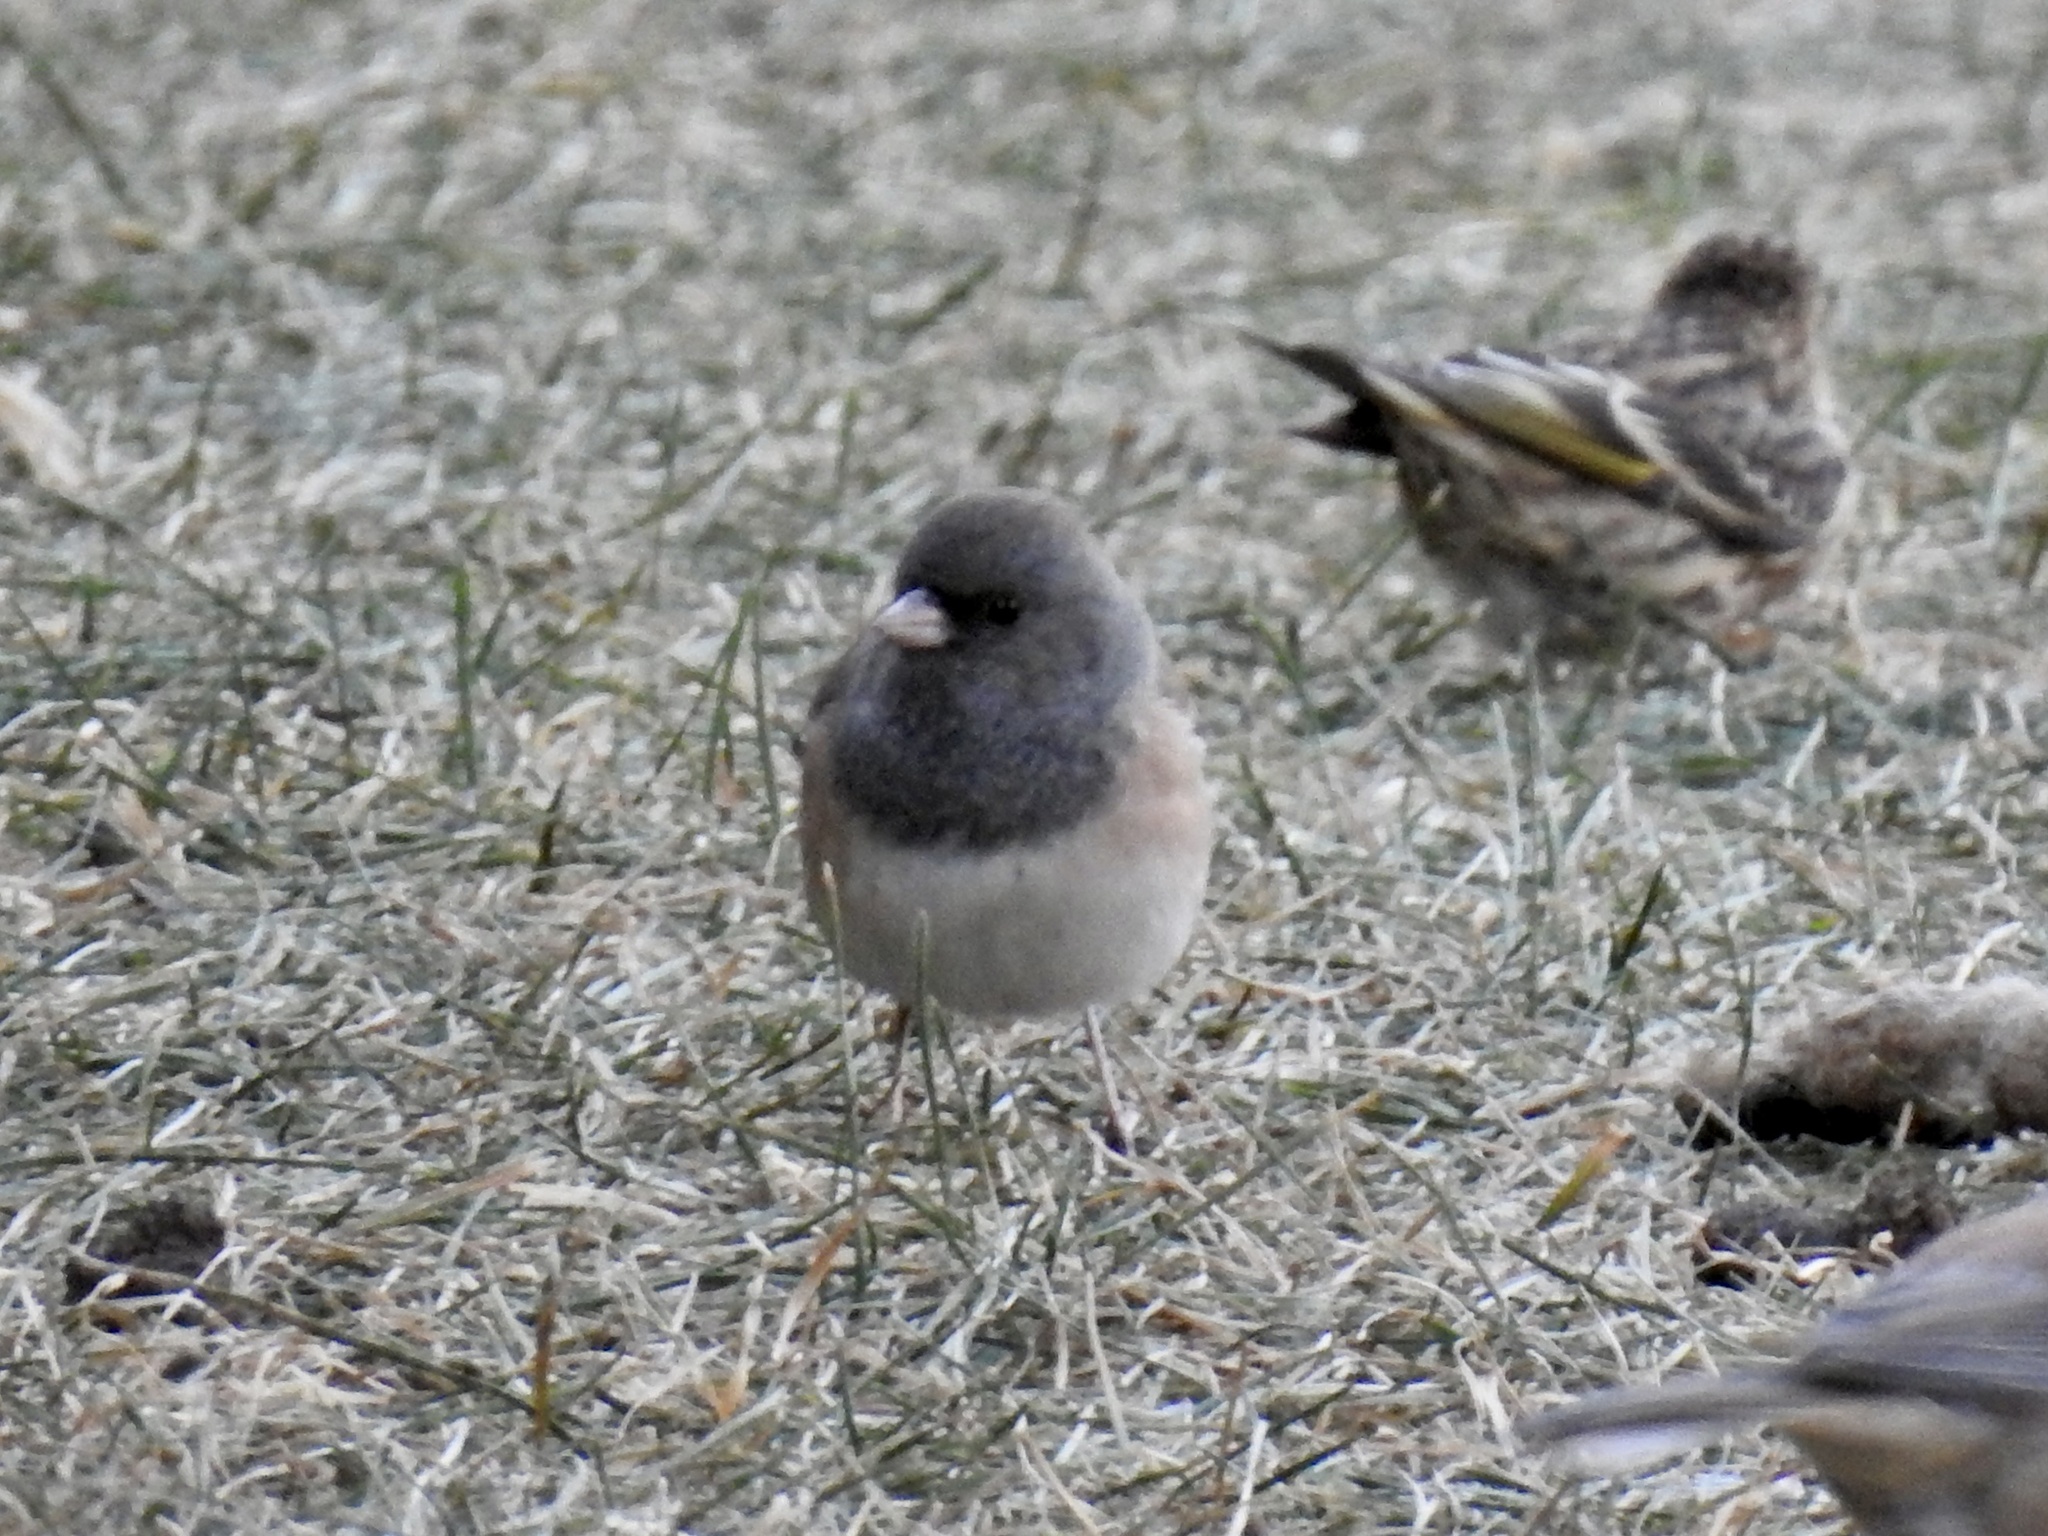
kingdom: Animalia
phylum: Chordata
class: Aves
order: Passeriformes
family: Passerellidae
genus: Junco
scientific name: Junco hyemalis
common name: Dark-eyed junco
